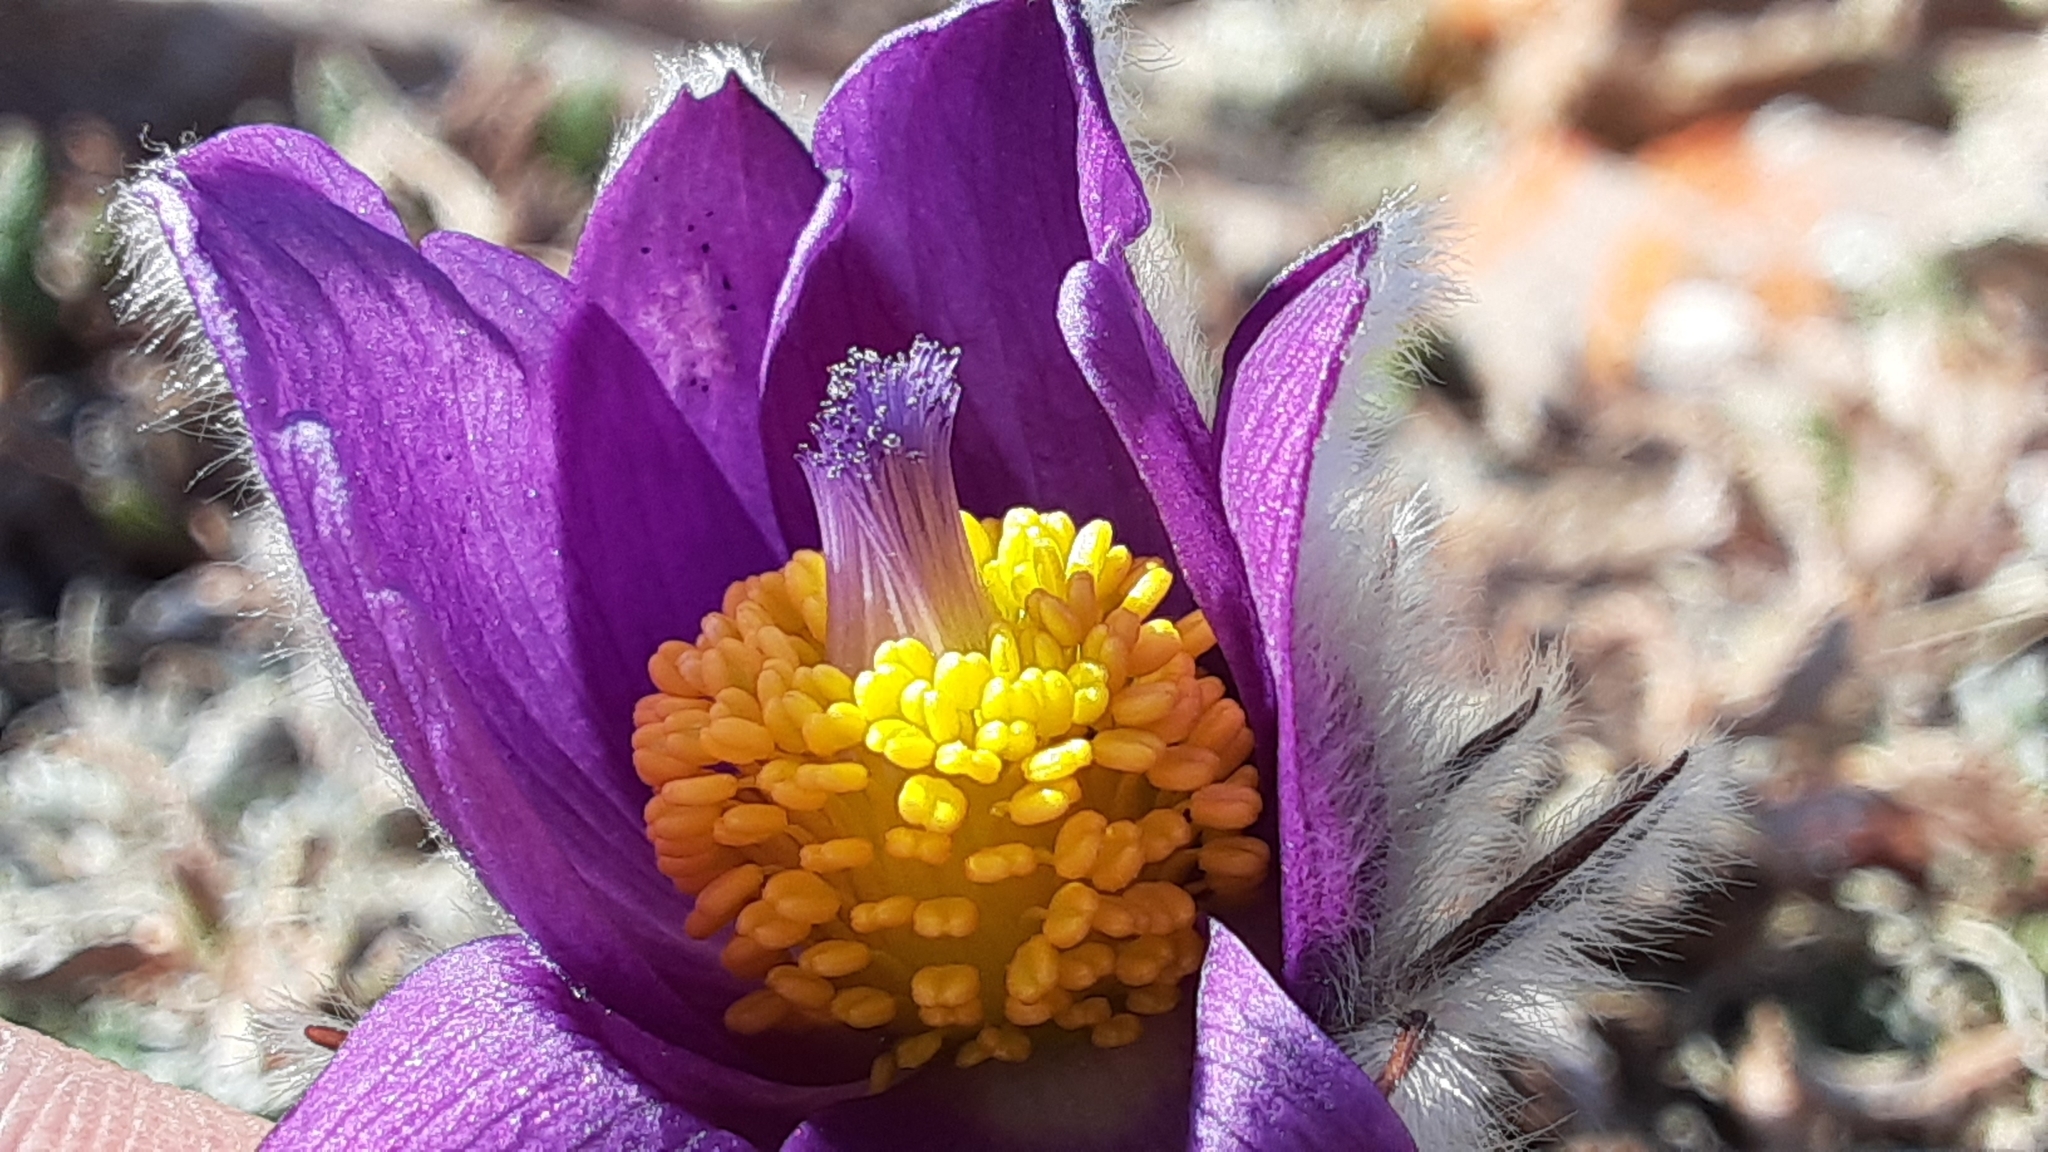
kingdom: Plantae
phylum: Tracheophyta
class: Magnoliopsida
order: Ranunculales
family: Ranunculaceae
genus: Pulsatilla
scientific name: Pulsatilla nuttalliana
